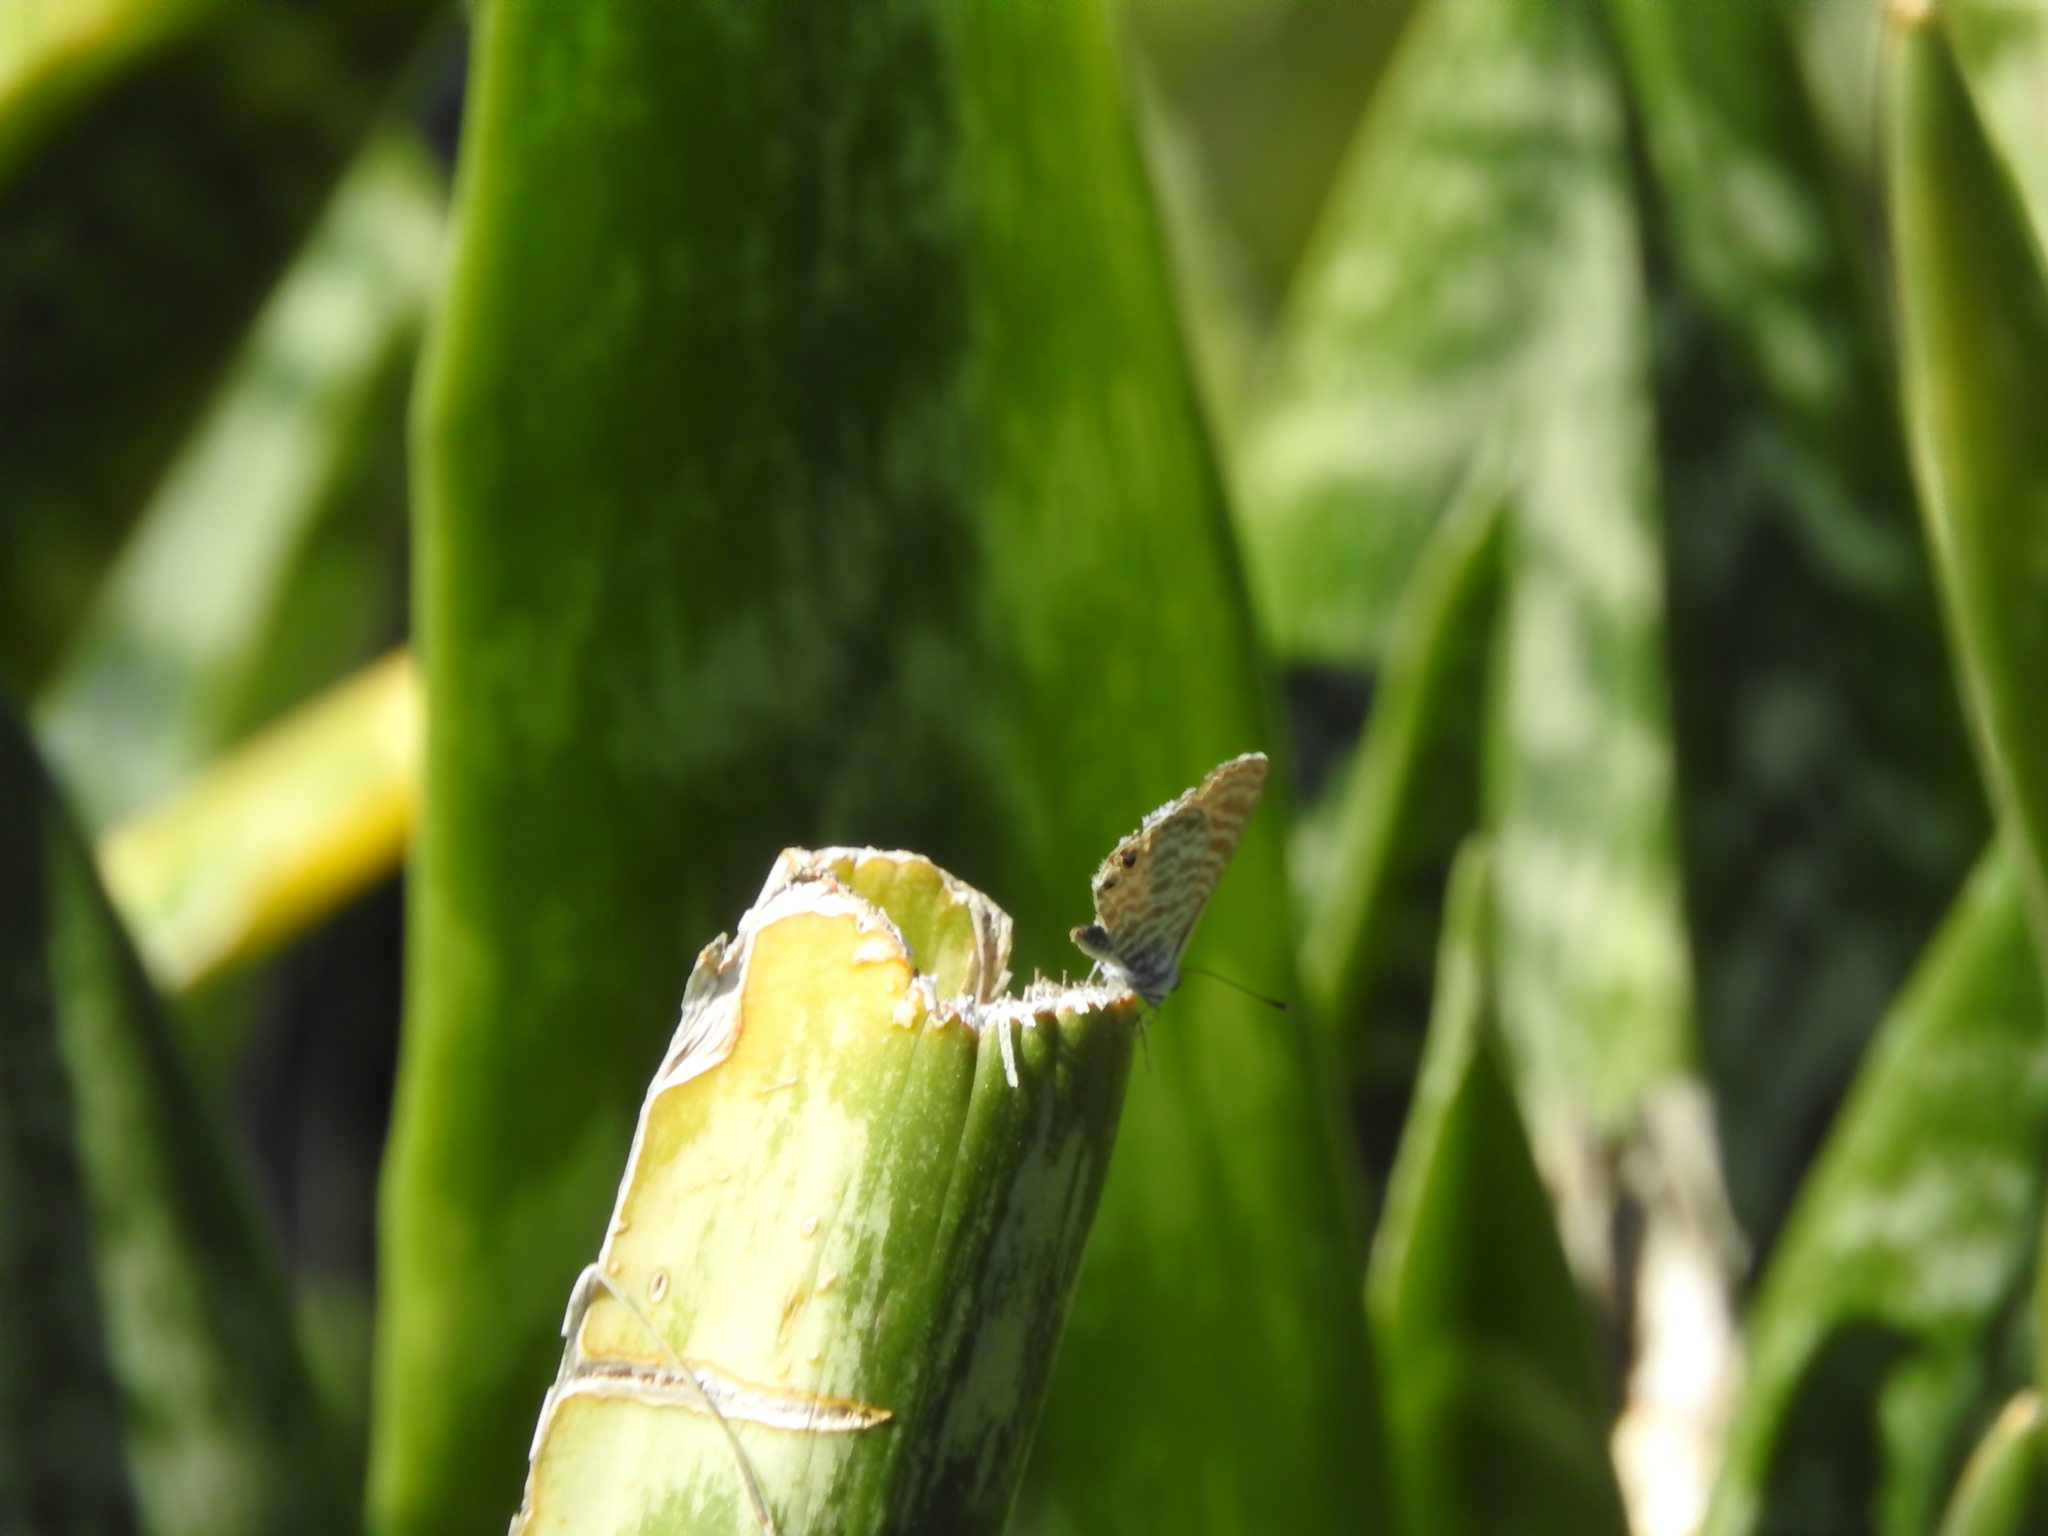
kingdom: Animalia
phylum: Arthropoda
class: Insecta
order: Lepidoptera
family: Lycaenidae
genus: Leptotes
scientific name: Leptotes marina
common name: Marine blue
